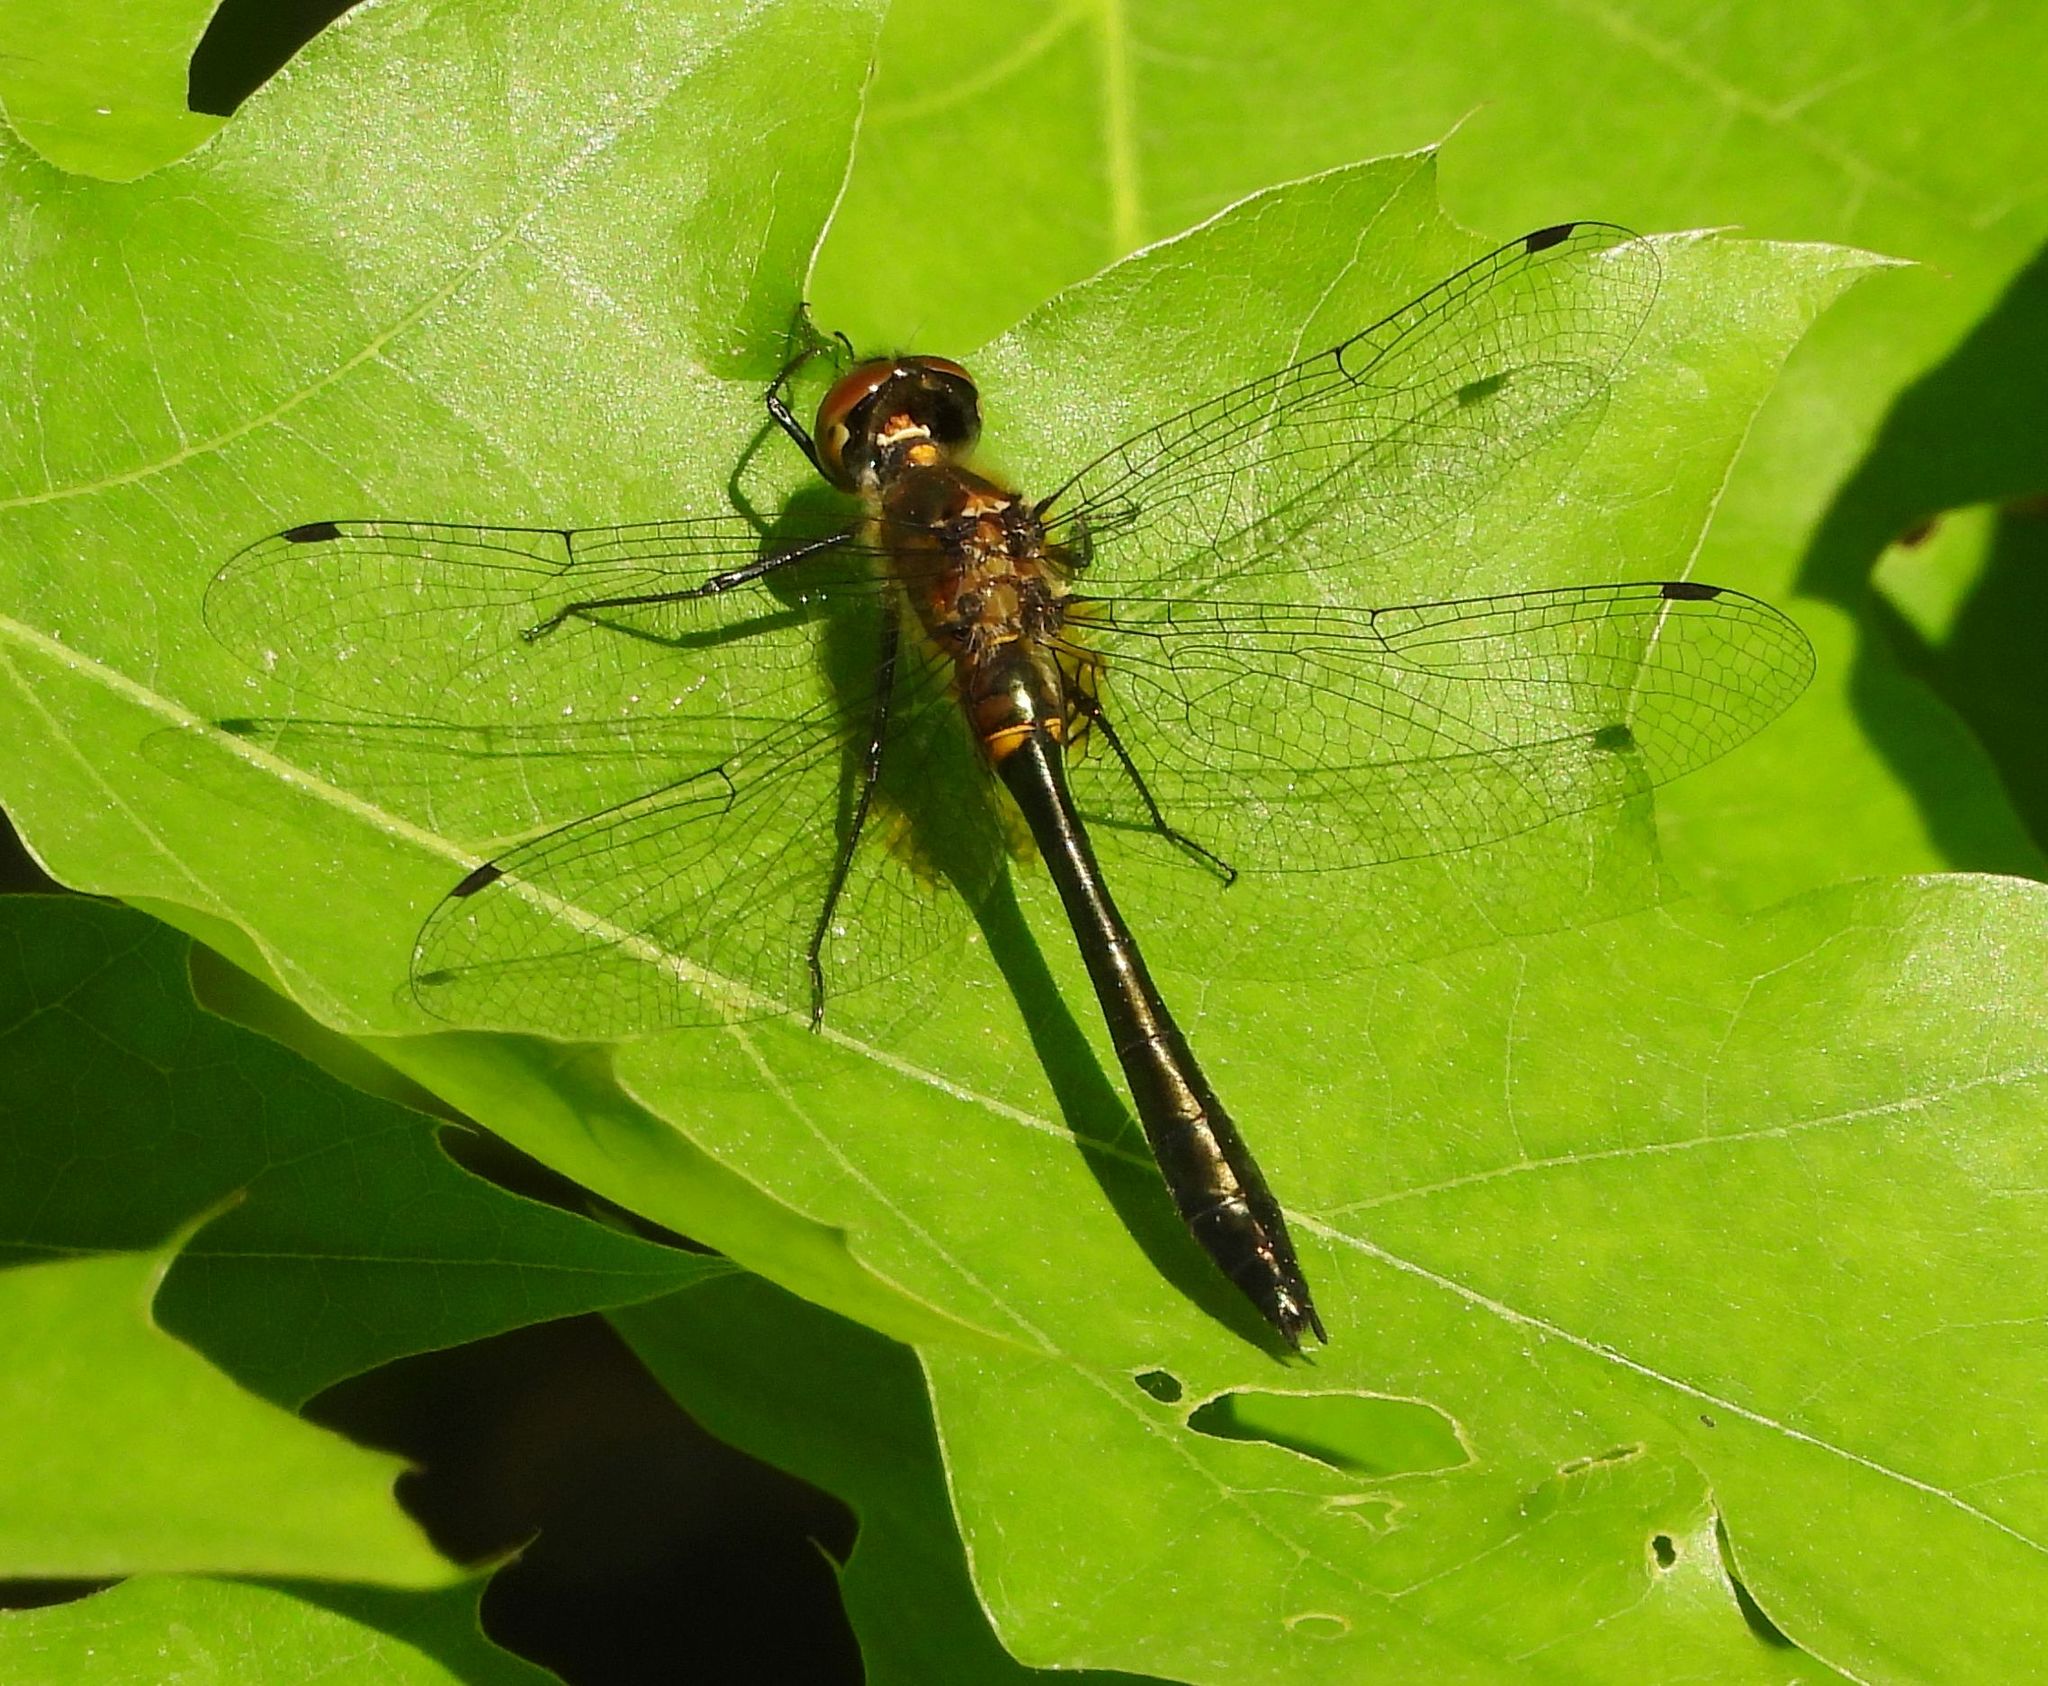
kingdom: Animalia
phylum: Arthropoda
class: Insecta
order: Odonata
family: Corduliidae
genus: Dorocordulia
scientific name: Dorocordulia libera
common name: Racket-tailed emerald
